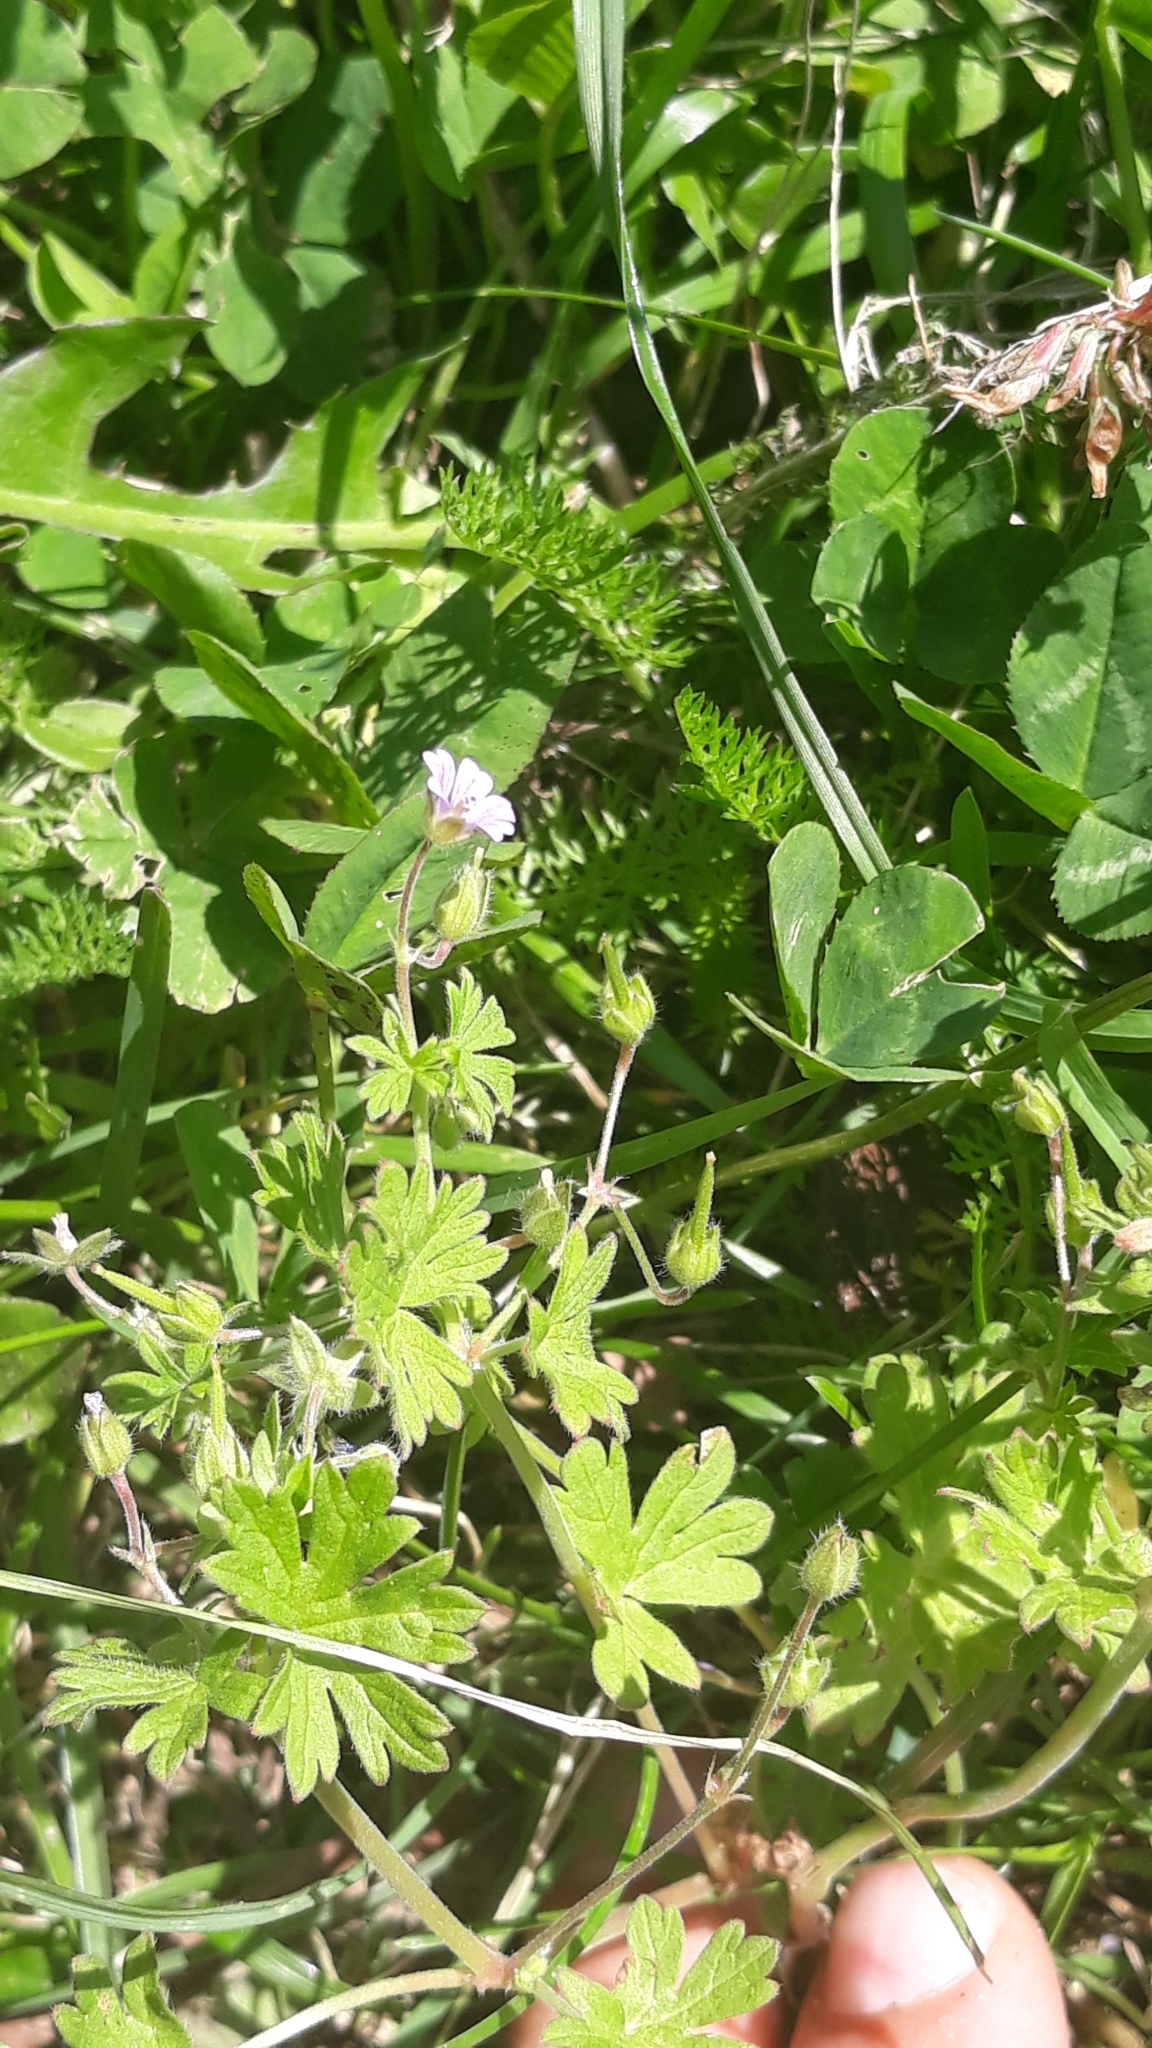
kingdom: Plantae
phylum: Tracheophyta
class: Magnoliopsida
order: Geraniales
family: Geraniaceae
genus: Geranium
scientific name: Geranium pusillum
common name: Small geranium
